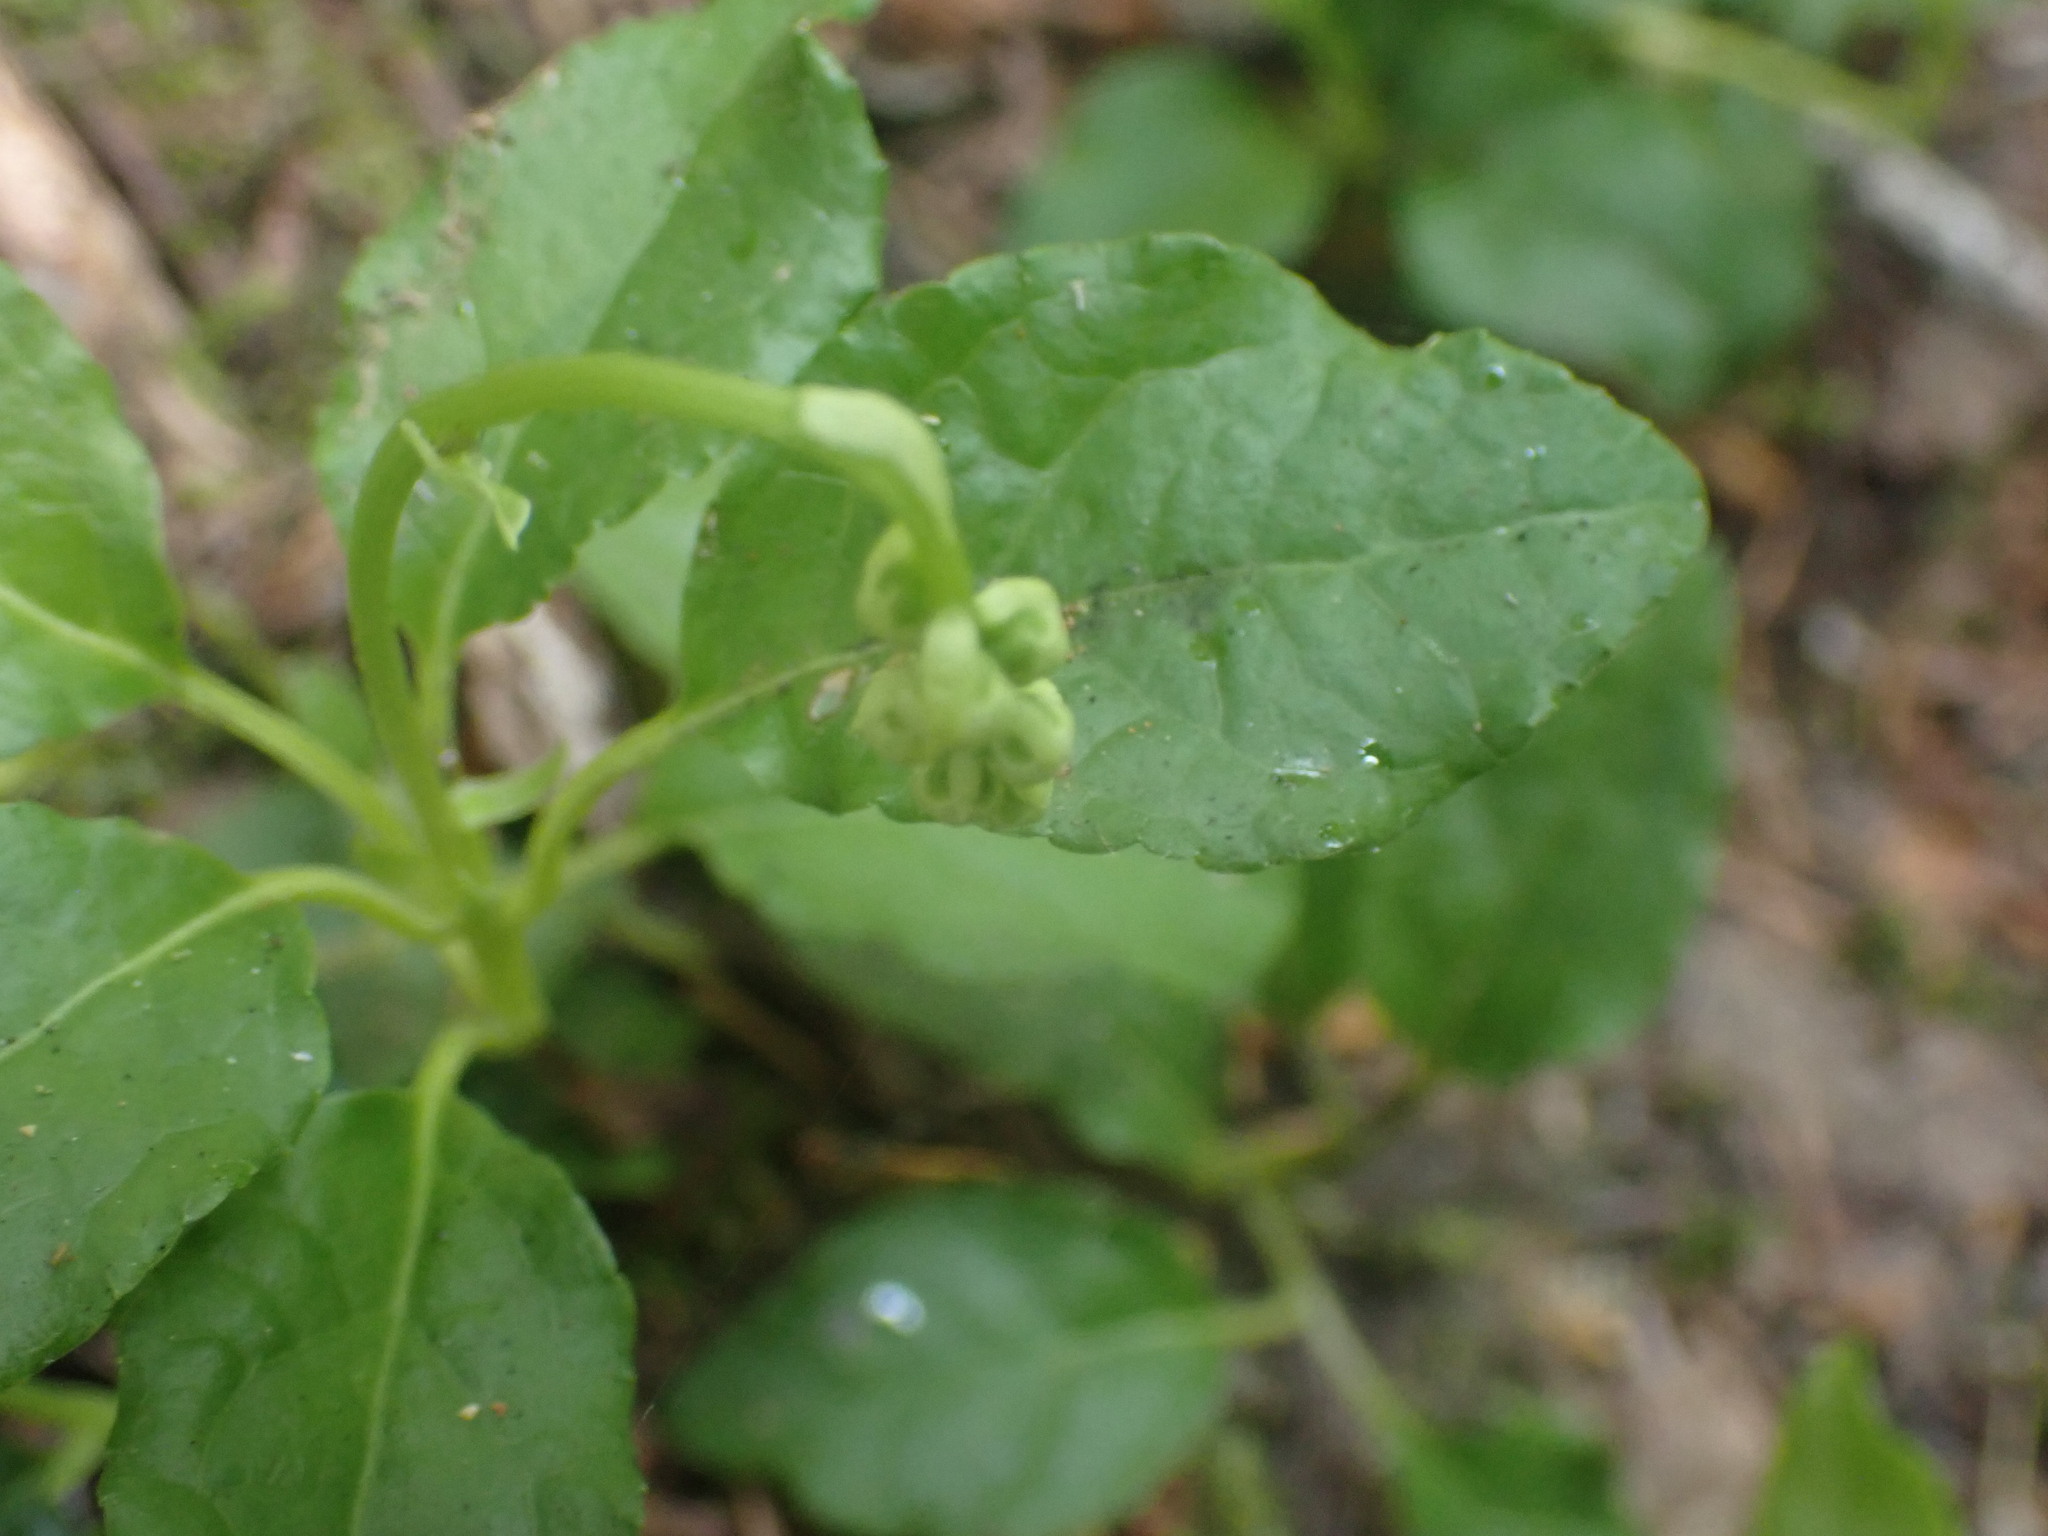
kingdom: Plantae
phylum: Tracheophyta
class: Magnoliopsida
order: Ericales
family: Ericaceae
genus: Orthilia
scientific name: Orthilia secunda
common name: One-sided orthilia
